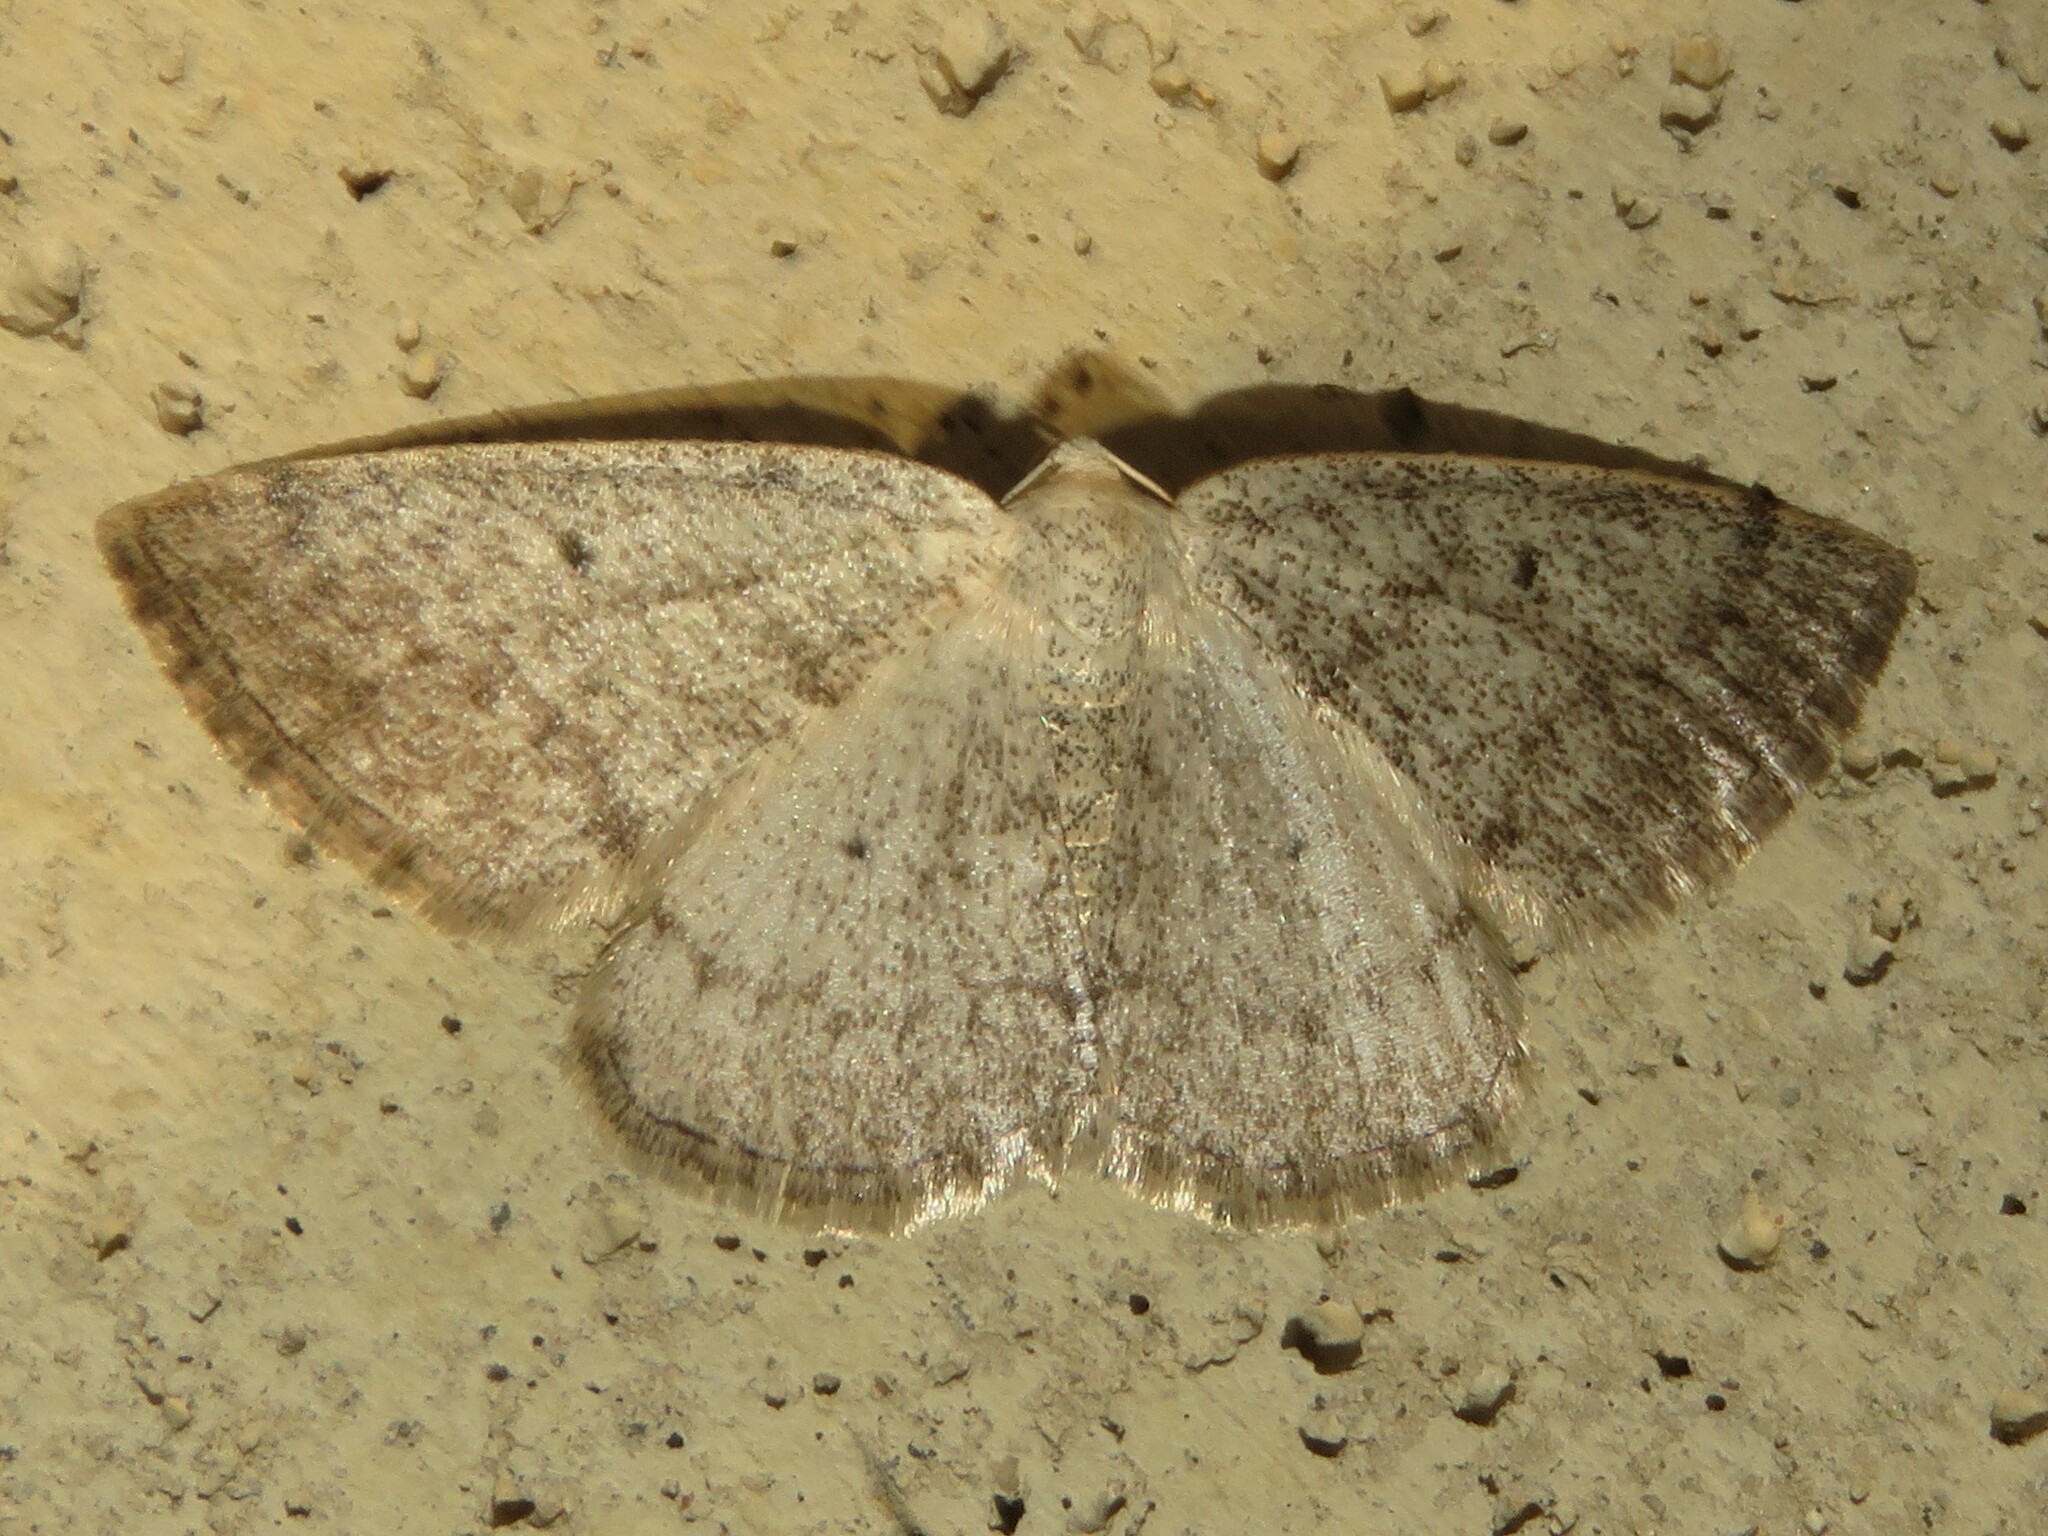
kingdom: Animalia
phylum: Arthropoda
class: Insecta
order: Lepidoptera
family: Geometridae
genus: Lomographa
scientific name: Lomographa glomeraria
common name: Gray spring moth
